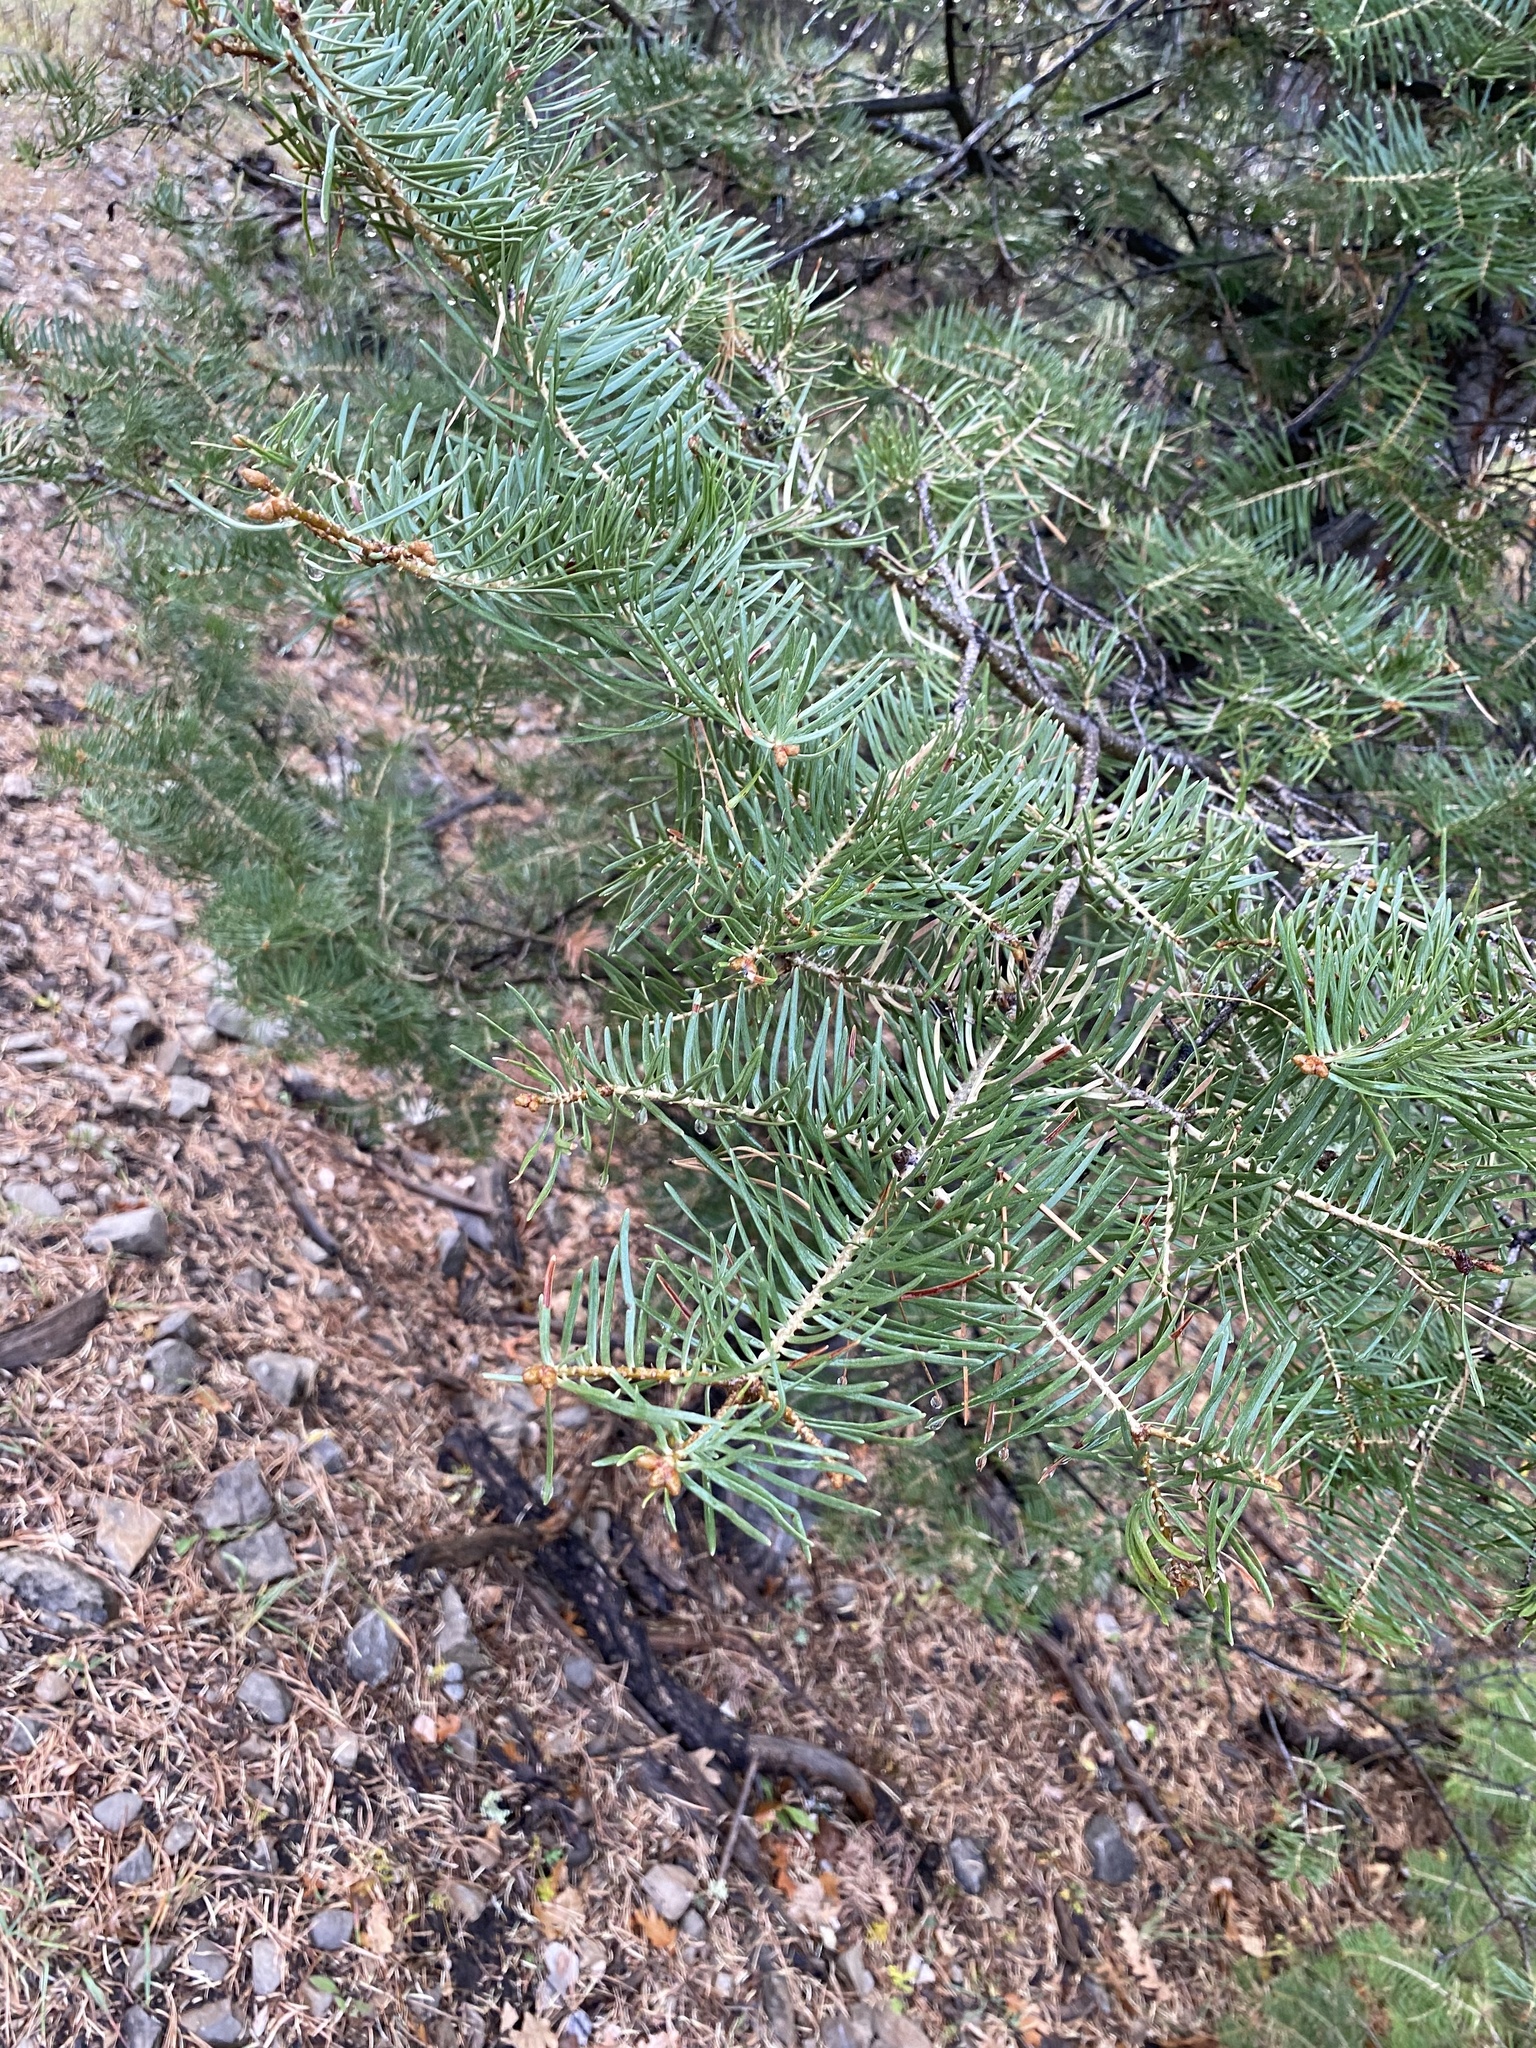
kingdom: Plantae
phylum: Tracheophyta
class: Pinopsida
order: Pinales
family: Pinaceae
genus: Abies
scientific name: Abies concolor
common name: Colorado fir
